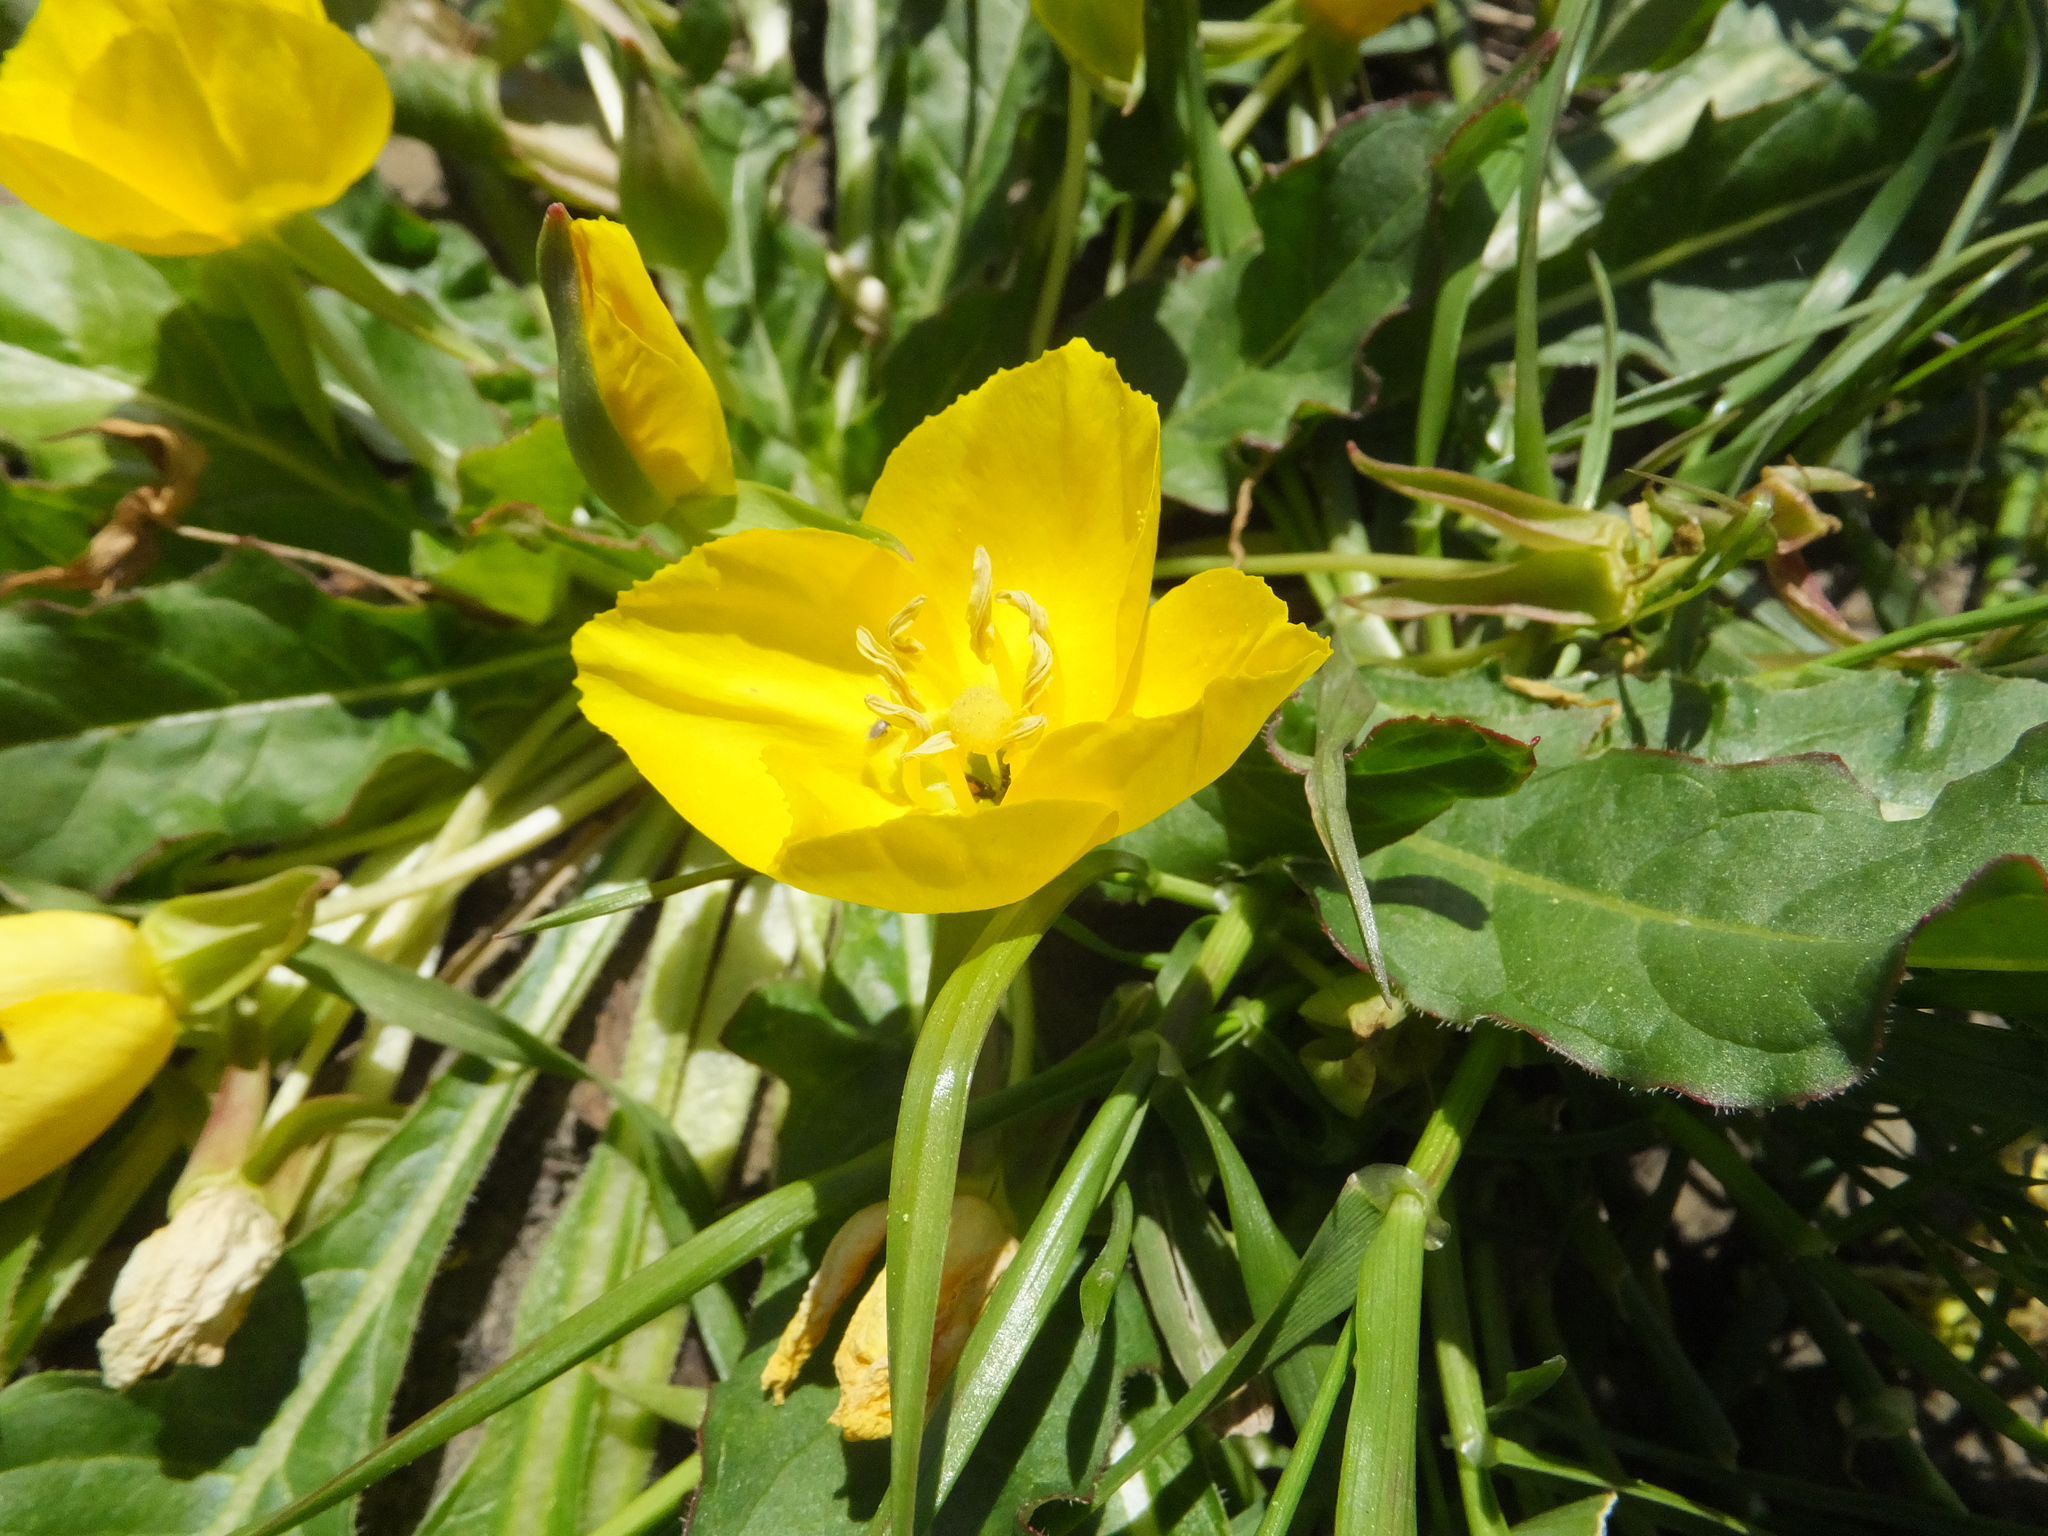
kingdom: Plantae
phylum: Tracheophyta
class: Magnoliopsida
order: Myrtales
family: Onagraceae
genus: Taraxia
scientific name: Taraxia ovata
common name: Goldeneggs
